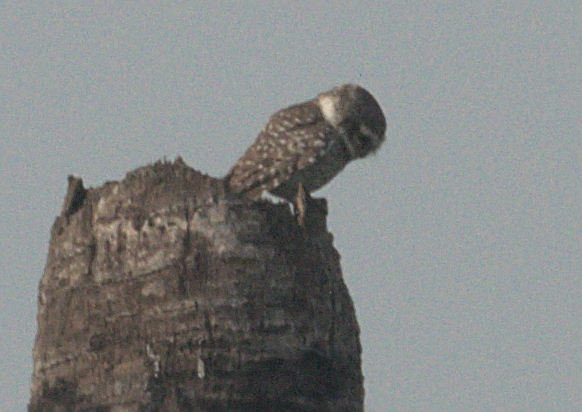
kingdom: Animalia
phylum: Chordata
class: Aves
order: Strigiformes
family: Strigidae
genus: Athene
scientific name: Athene brama
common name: Spotted owlet
